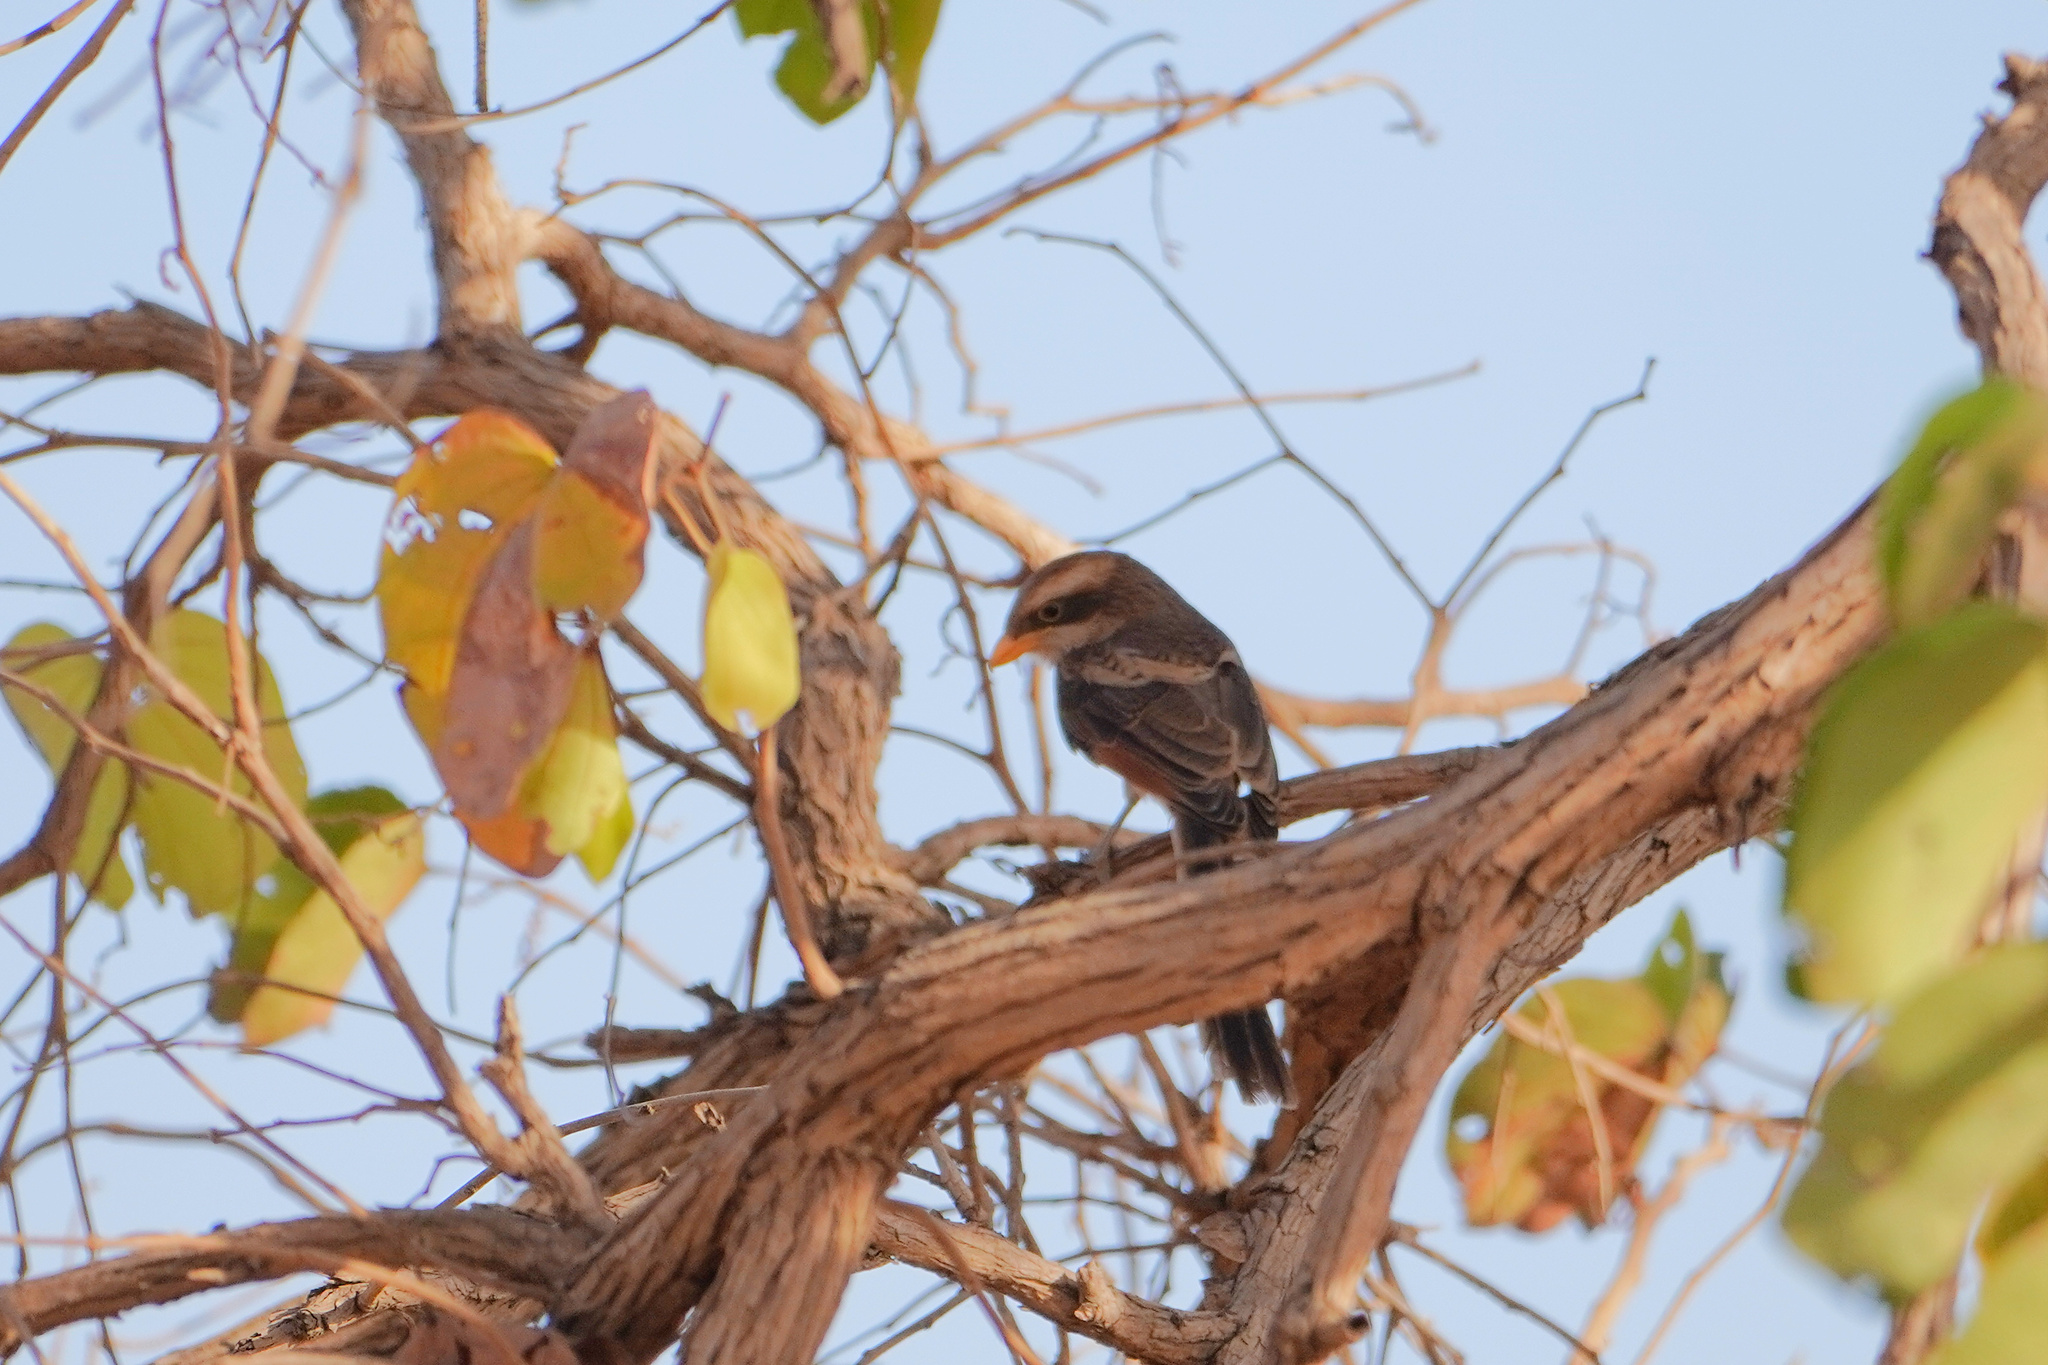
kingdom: Animalia
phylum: Chordata
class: Aves
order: Passeriformes
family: Laniidae
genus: Corvinella
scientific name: Corvinella corvina
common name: Yellow-billed shrike
